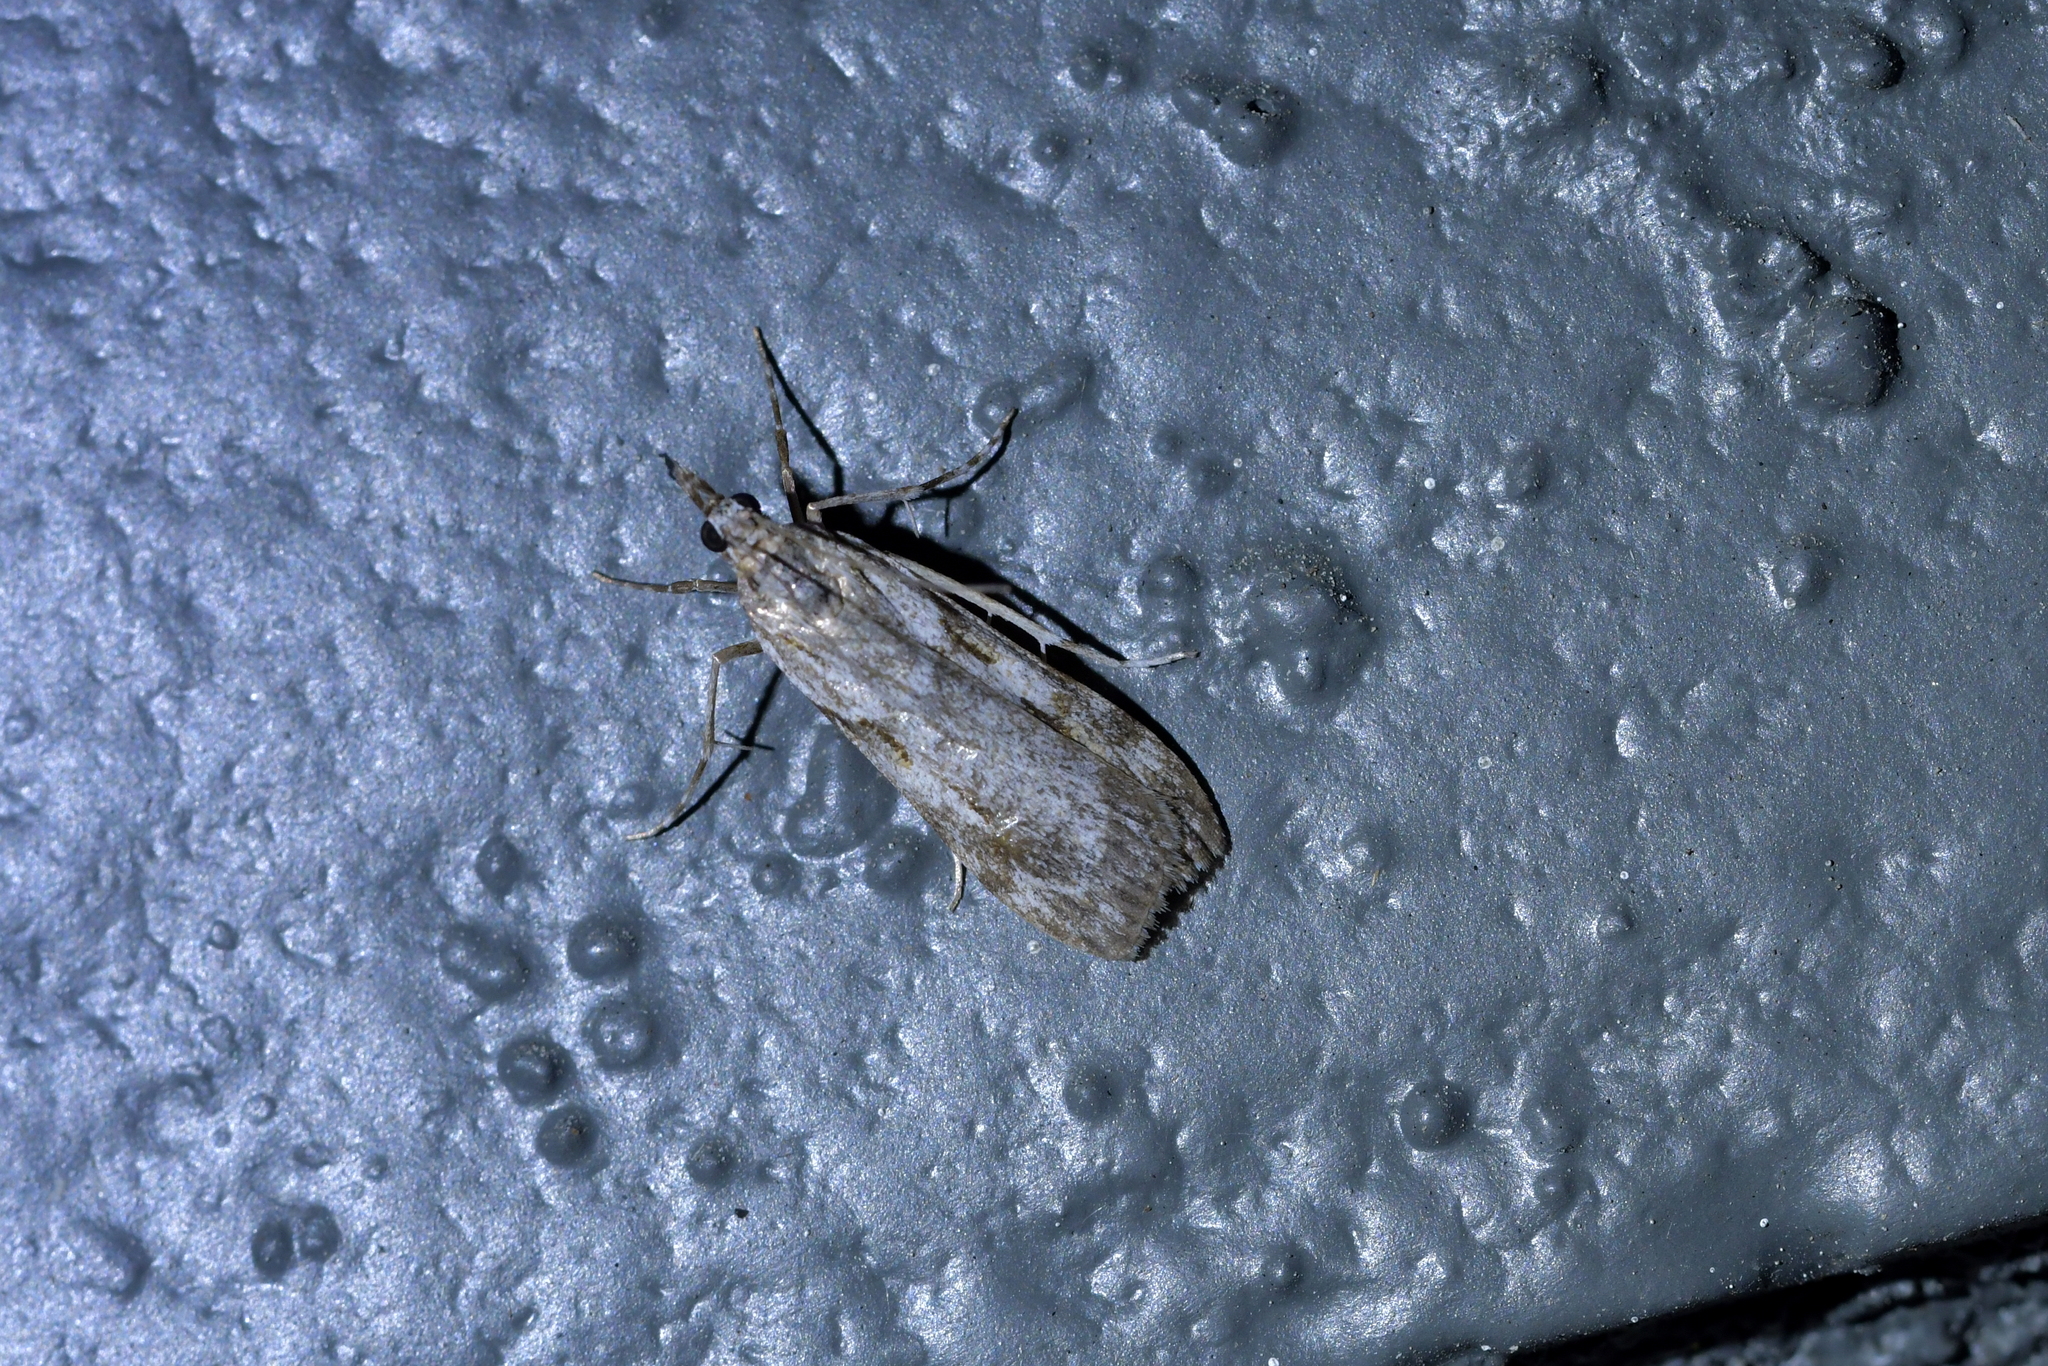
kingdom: Animalia
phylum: Arthropoda
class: Insecta
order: Lepidoptera
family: Crambidae
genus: Scoparia
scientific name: Scoparia halopis
